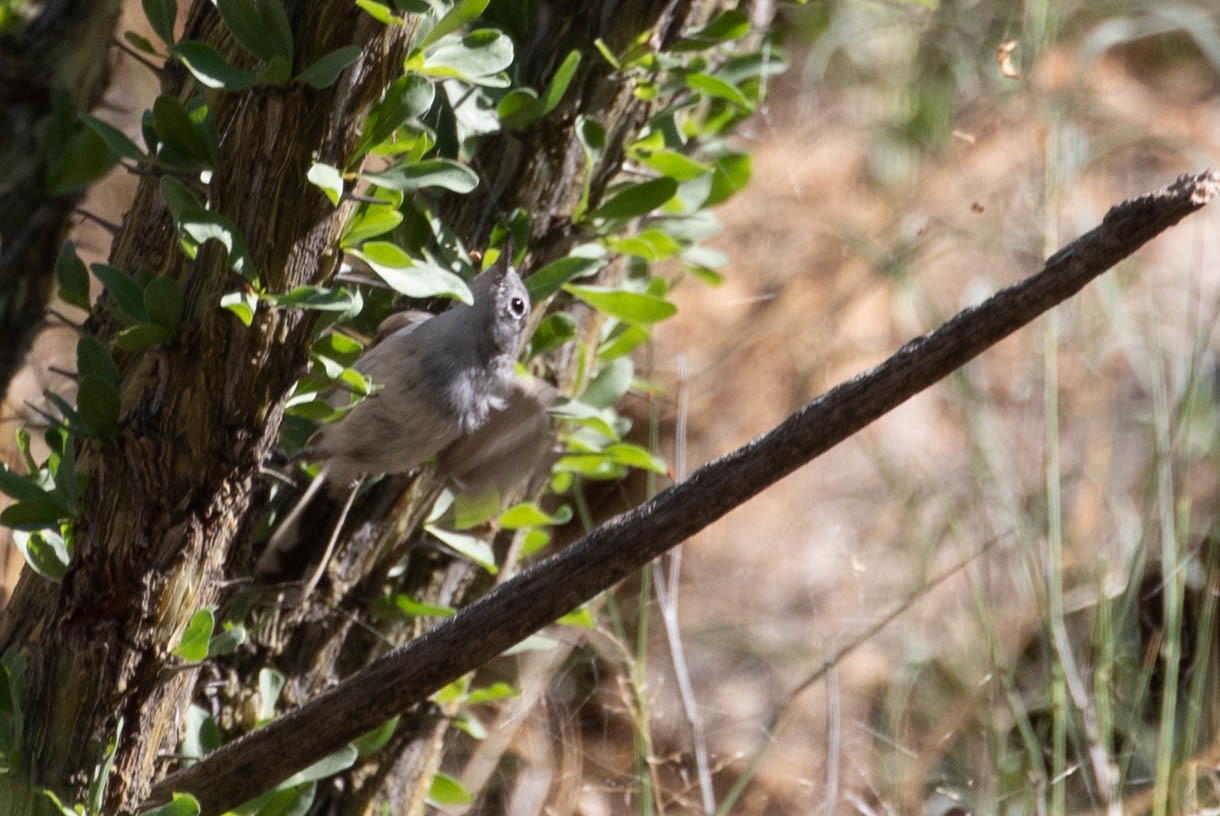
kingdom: Animalia
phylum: Chordata
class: Aves
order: Passeriformes
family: Polioptilidae
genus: Polioptila
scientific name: Polioptila melanura
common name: Black-tailed gnatcatcher
